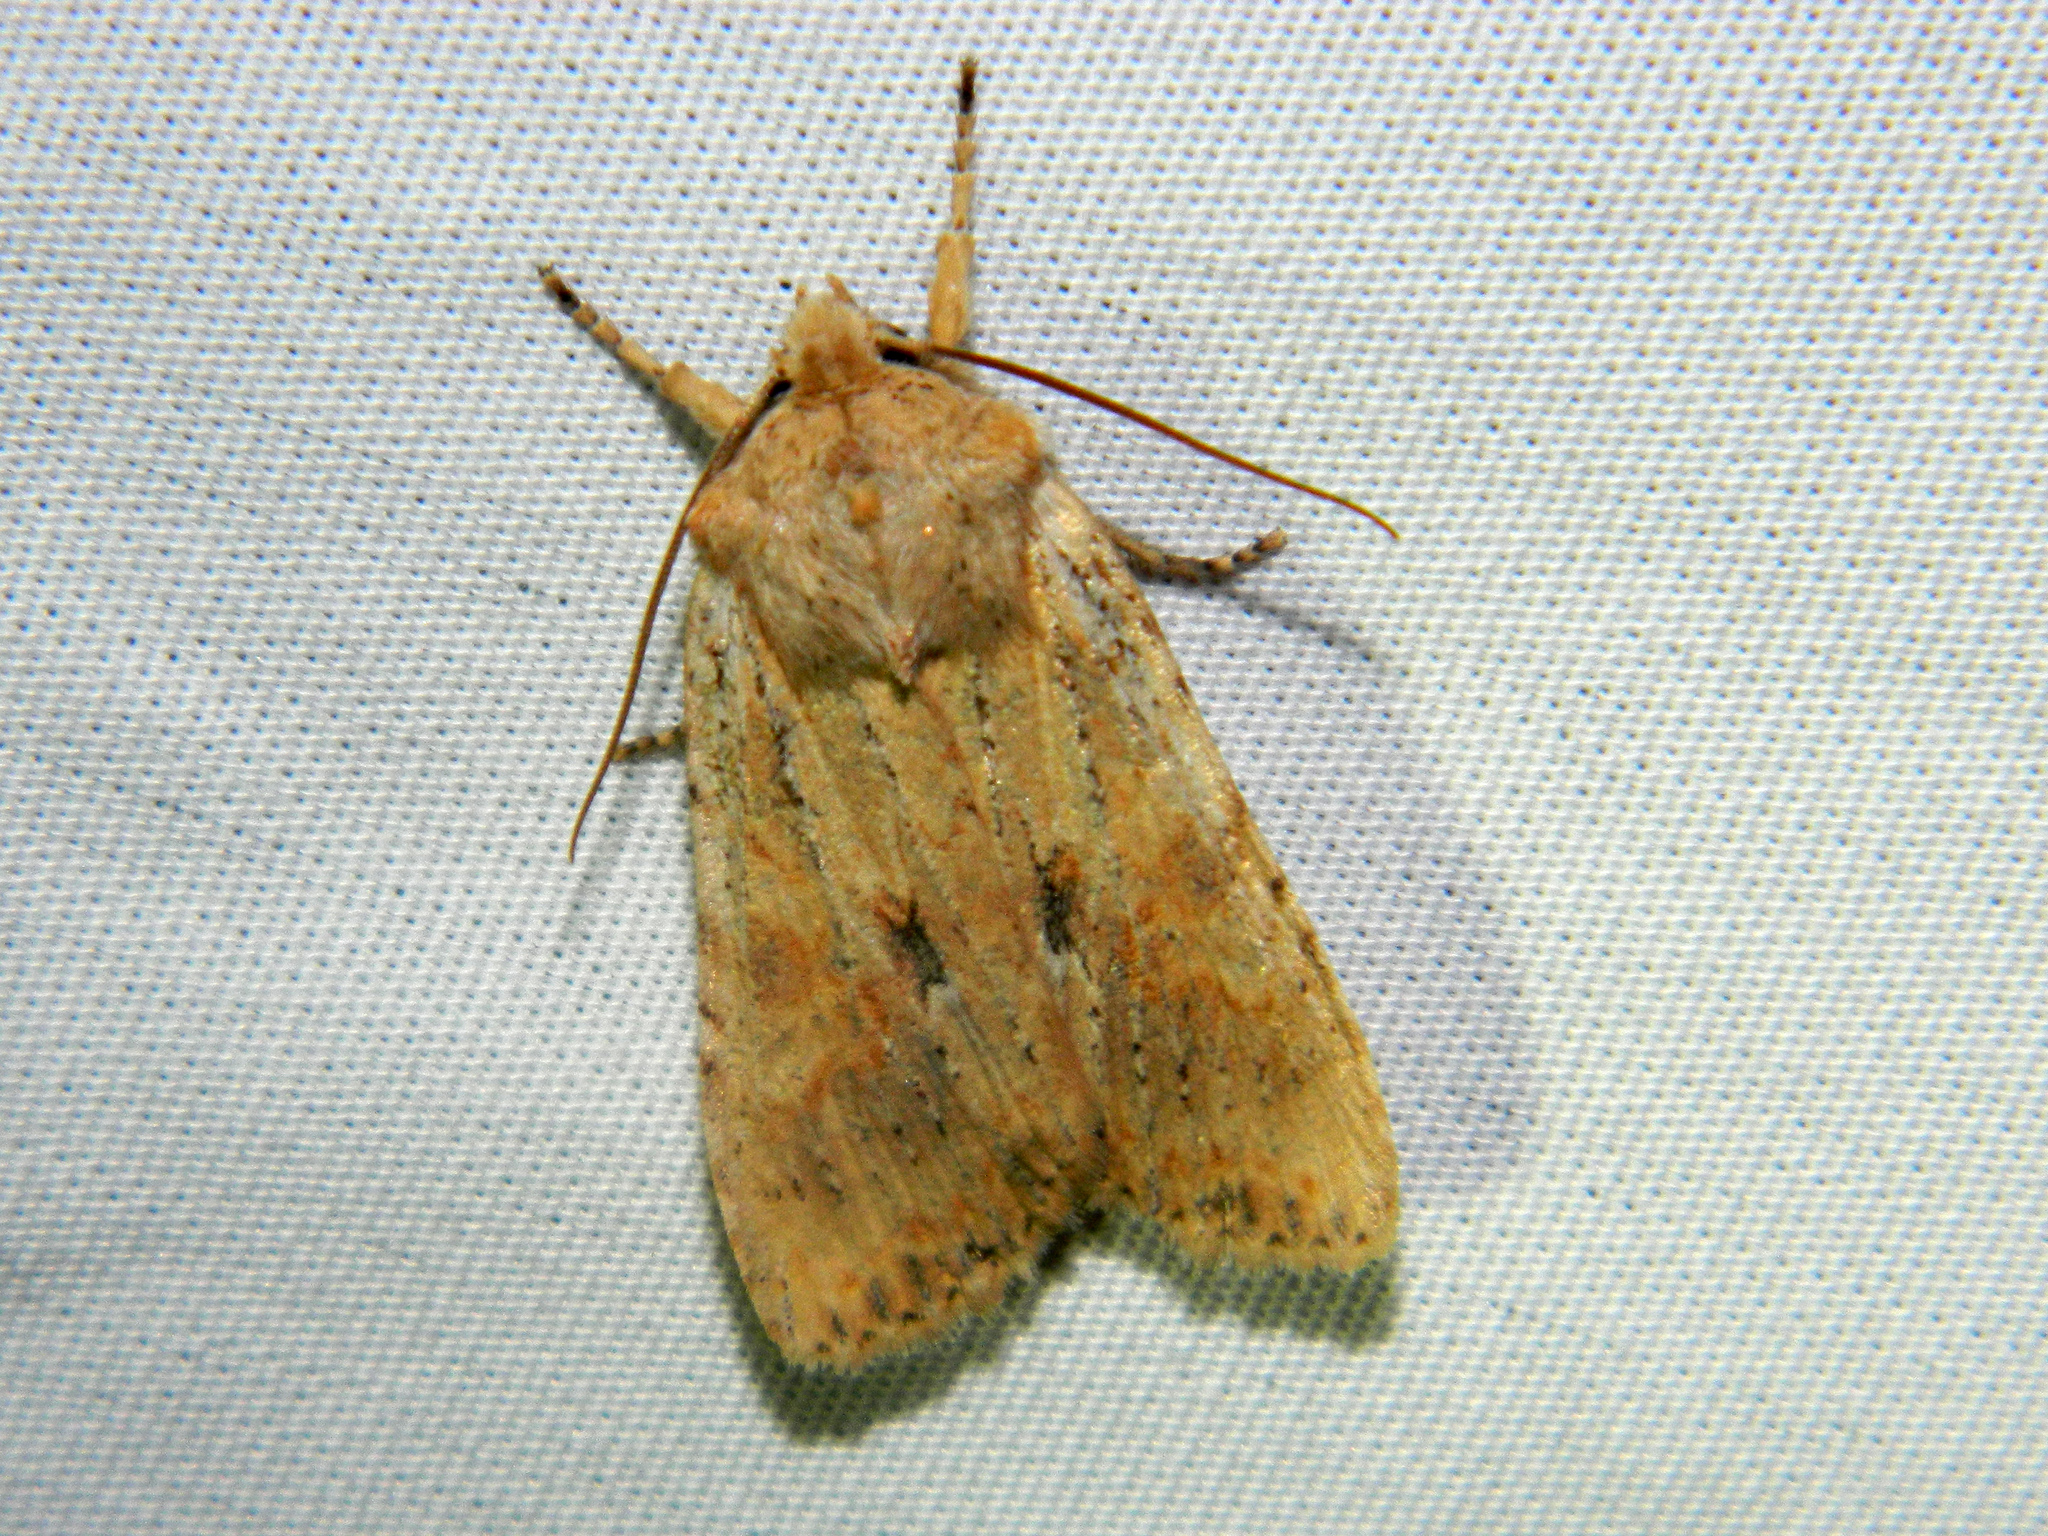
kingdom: Animalia
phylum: Arthropoda
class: Insecta
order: Lepidoptera
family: Noctuidae
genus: Lithophane
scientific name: Lithophane innominata
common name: Nameless pinion moth
